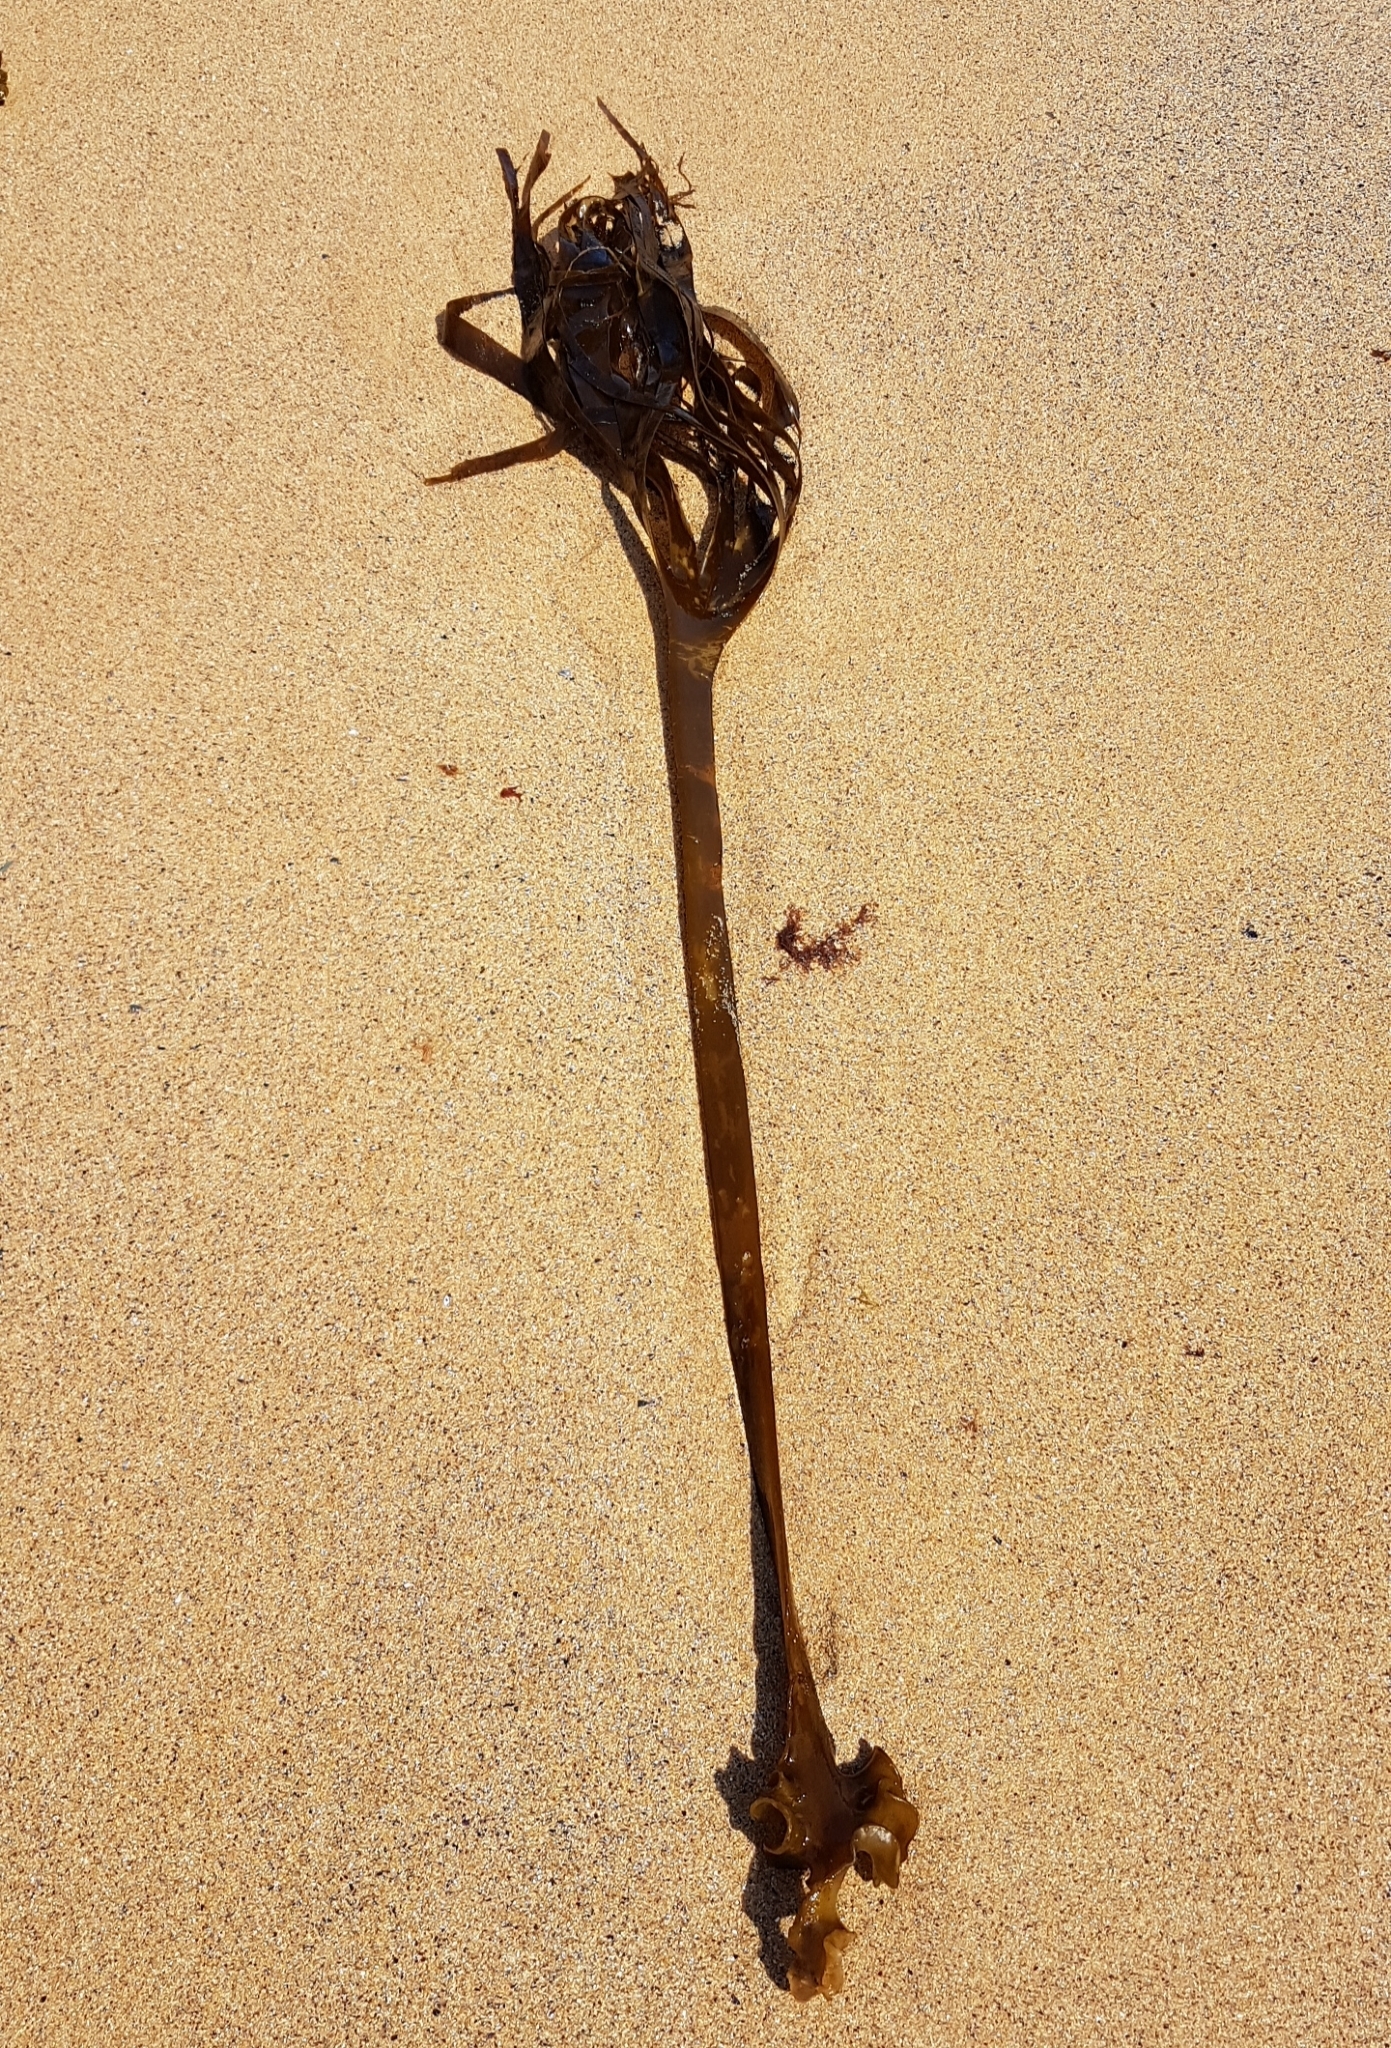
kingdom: Chromista
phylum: Ochrophyta
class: Phaeophyceae
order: Tilopteridales
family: Phyllariaceae
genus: Saccorhiza
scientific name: Saccorhiza polyschides
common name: Furbelows
